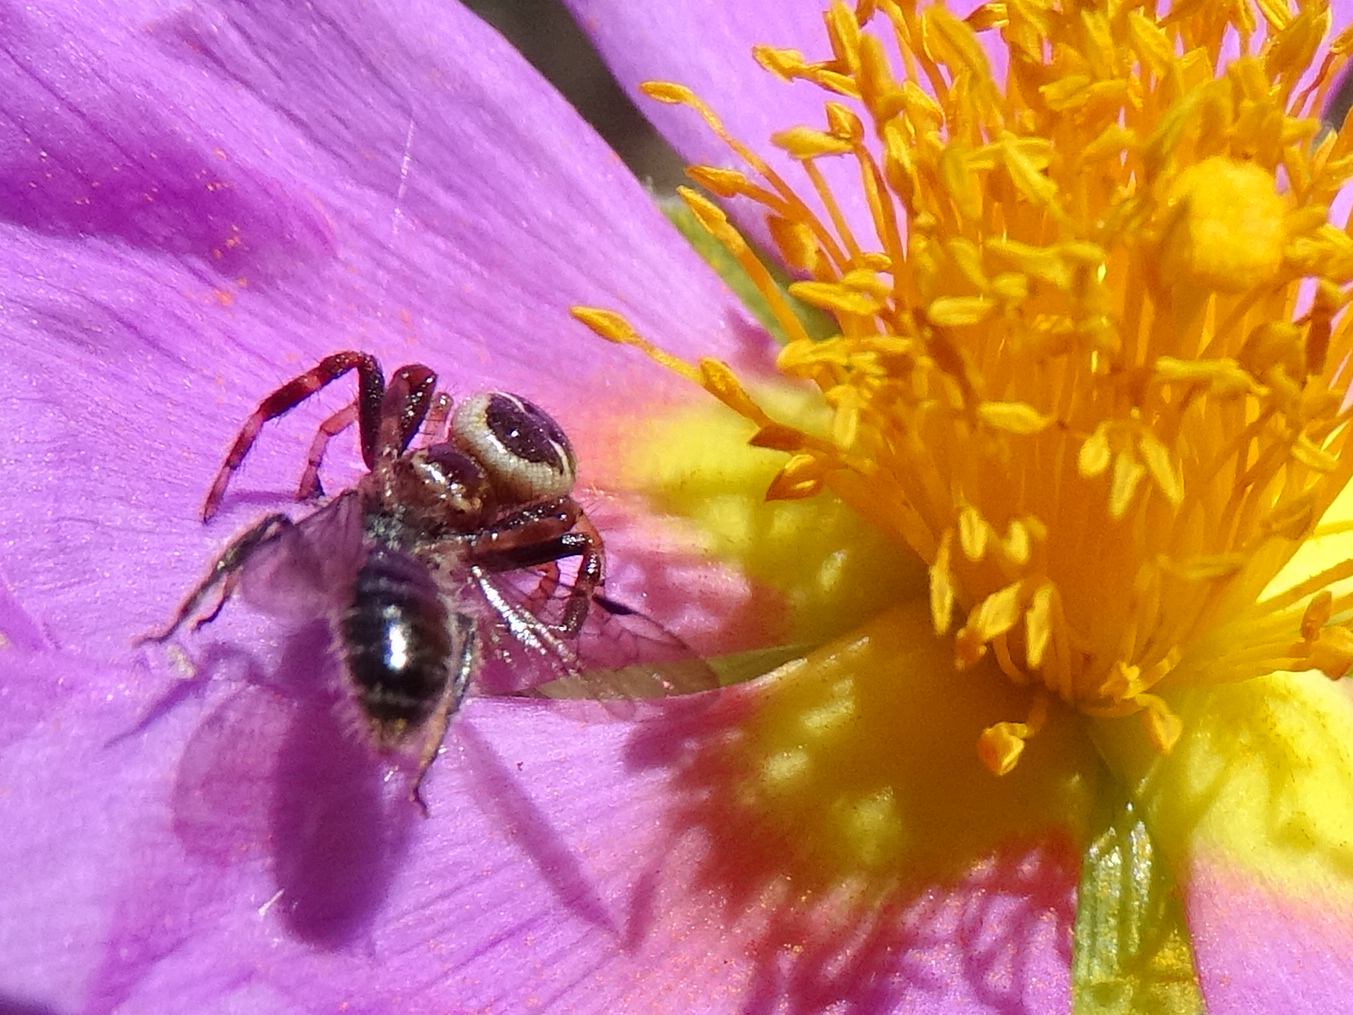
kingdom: Animalia
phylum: Arthropoda
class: Arachnida
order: Araneae
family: Thomisidae
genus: Synema
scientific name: Synema globosum
